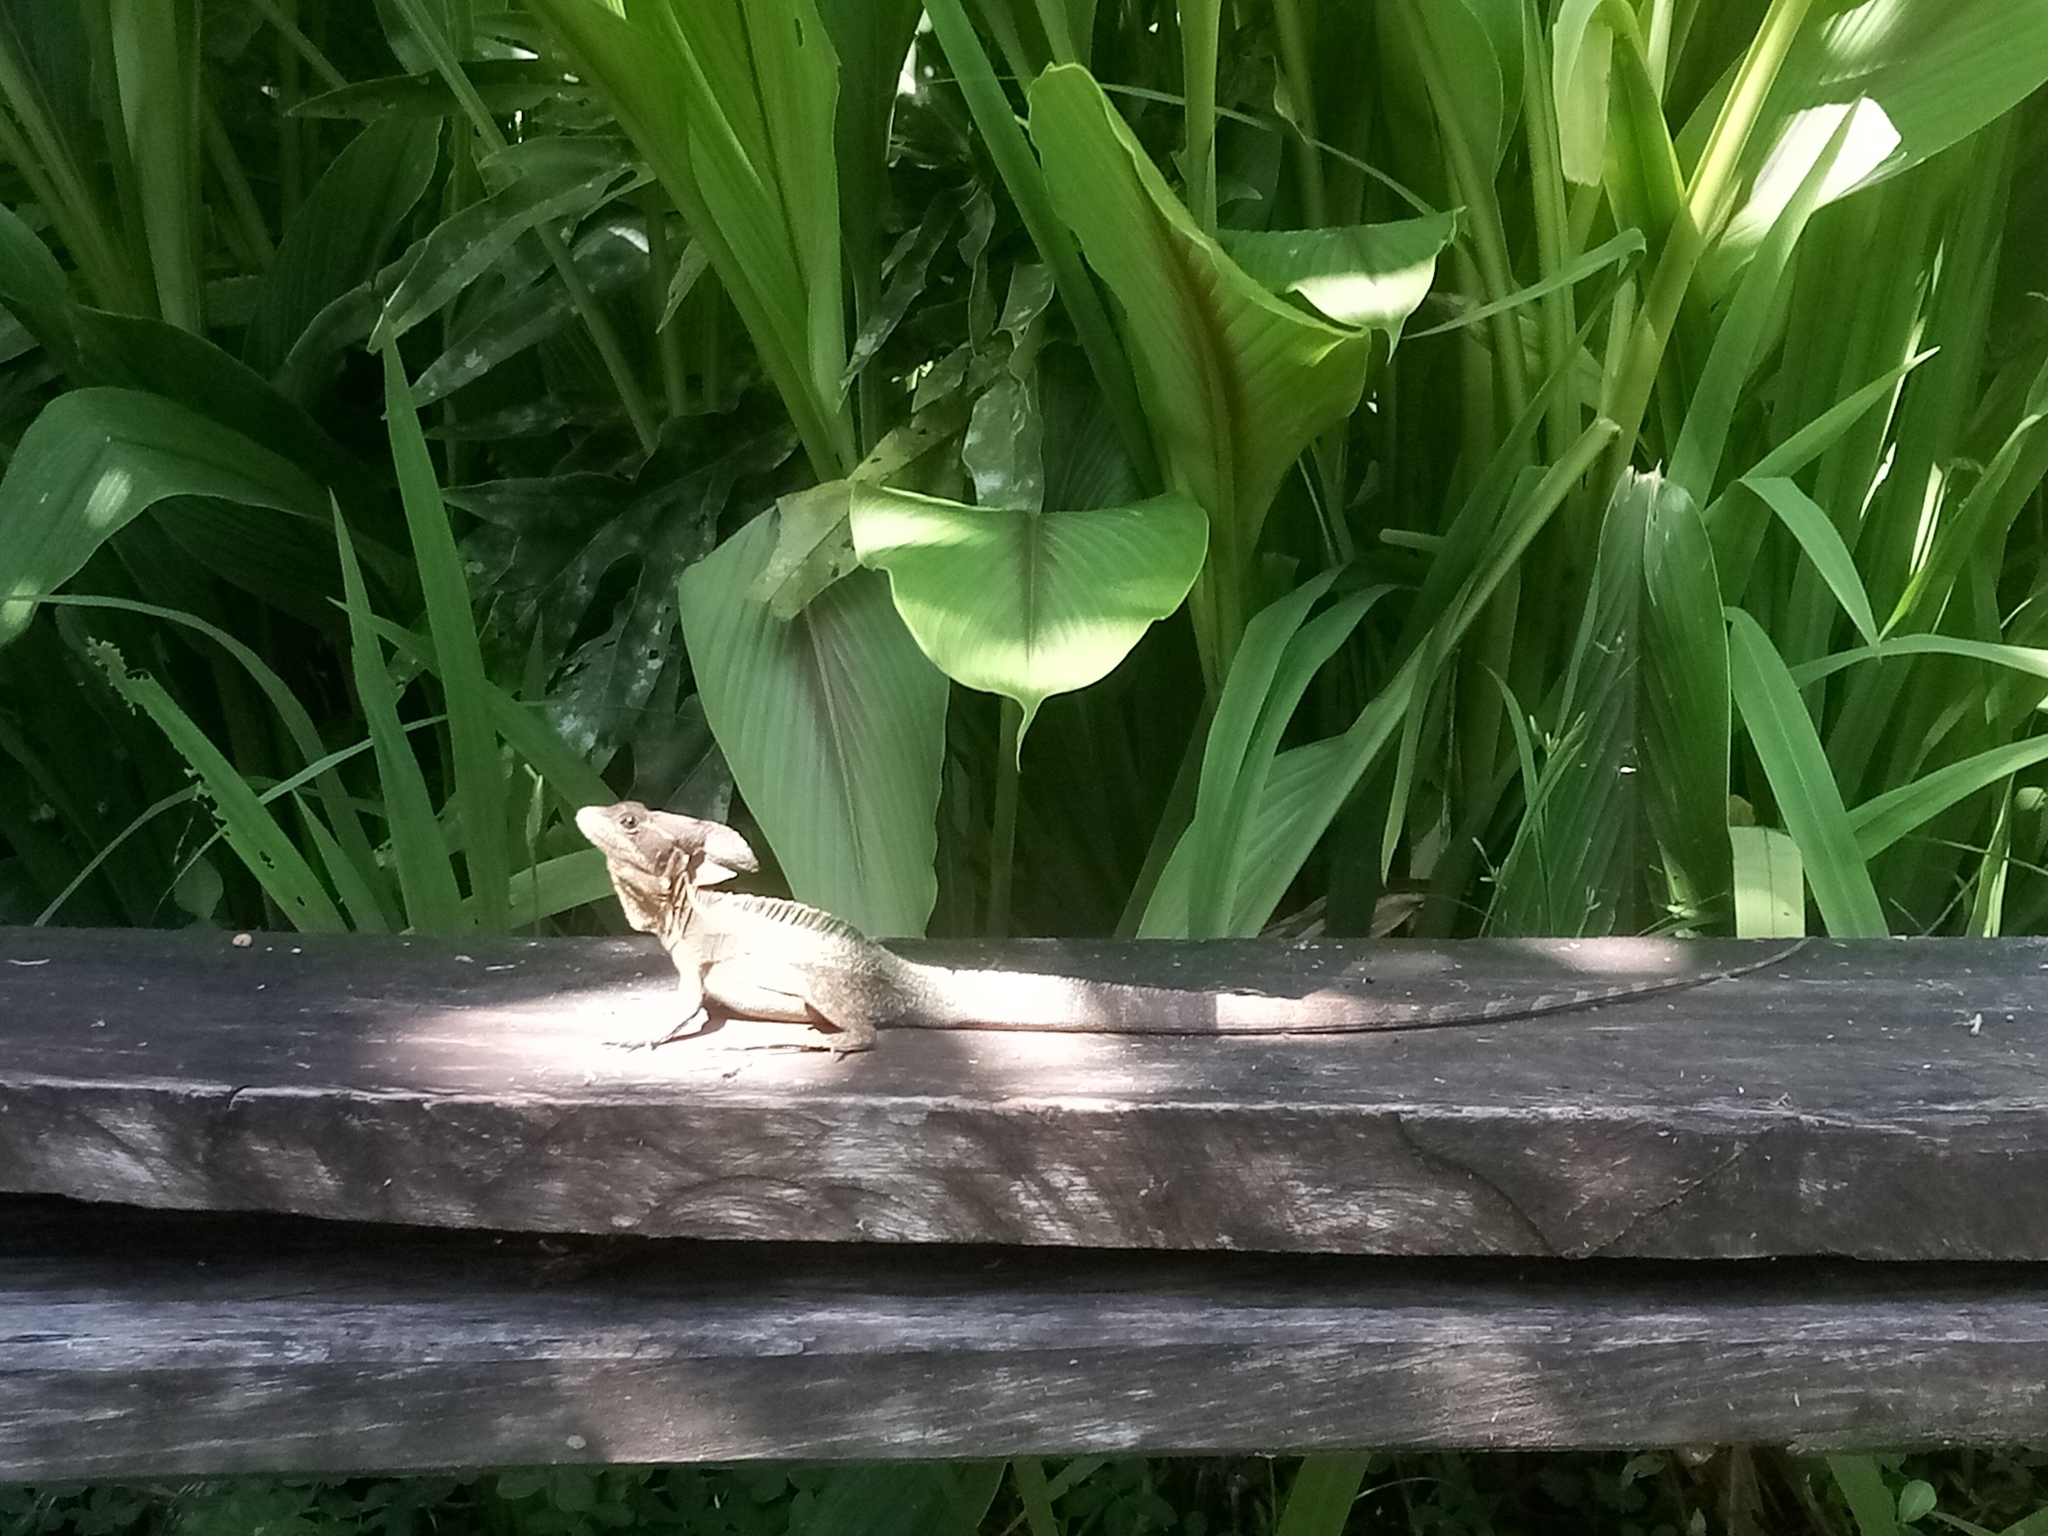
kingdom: Animalia
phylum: Chordata
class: Squamata
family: Corytophanidae
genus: Basiliscus
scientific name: Basiliscus vittatus
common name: Brown basilisk
